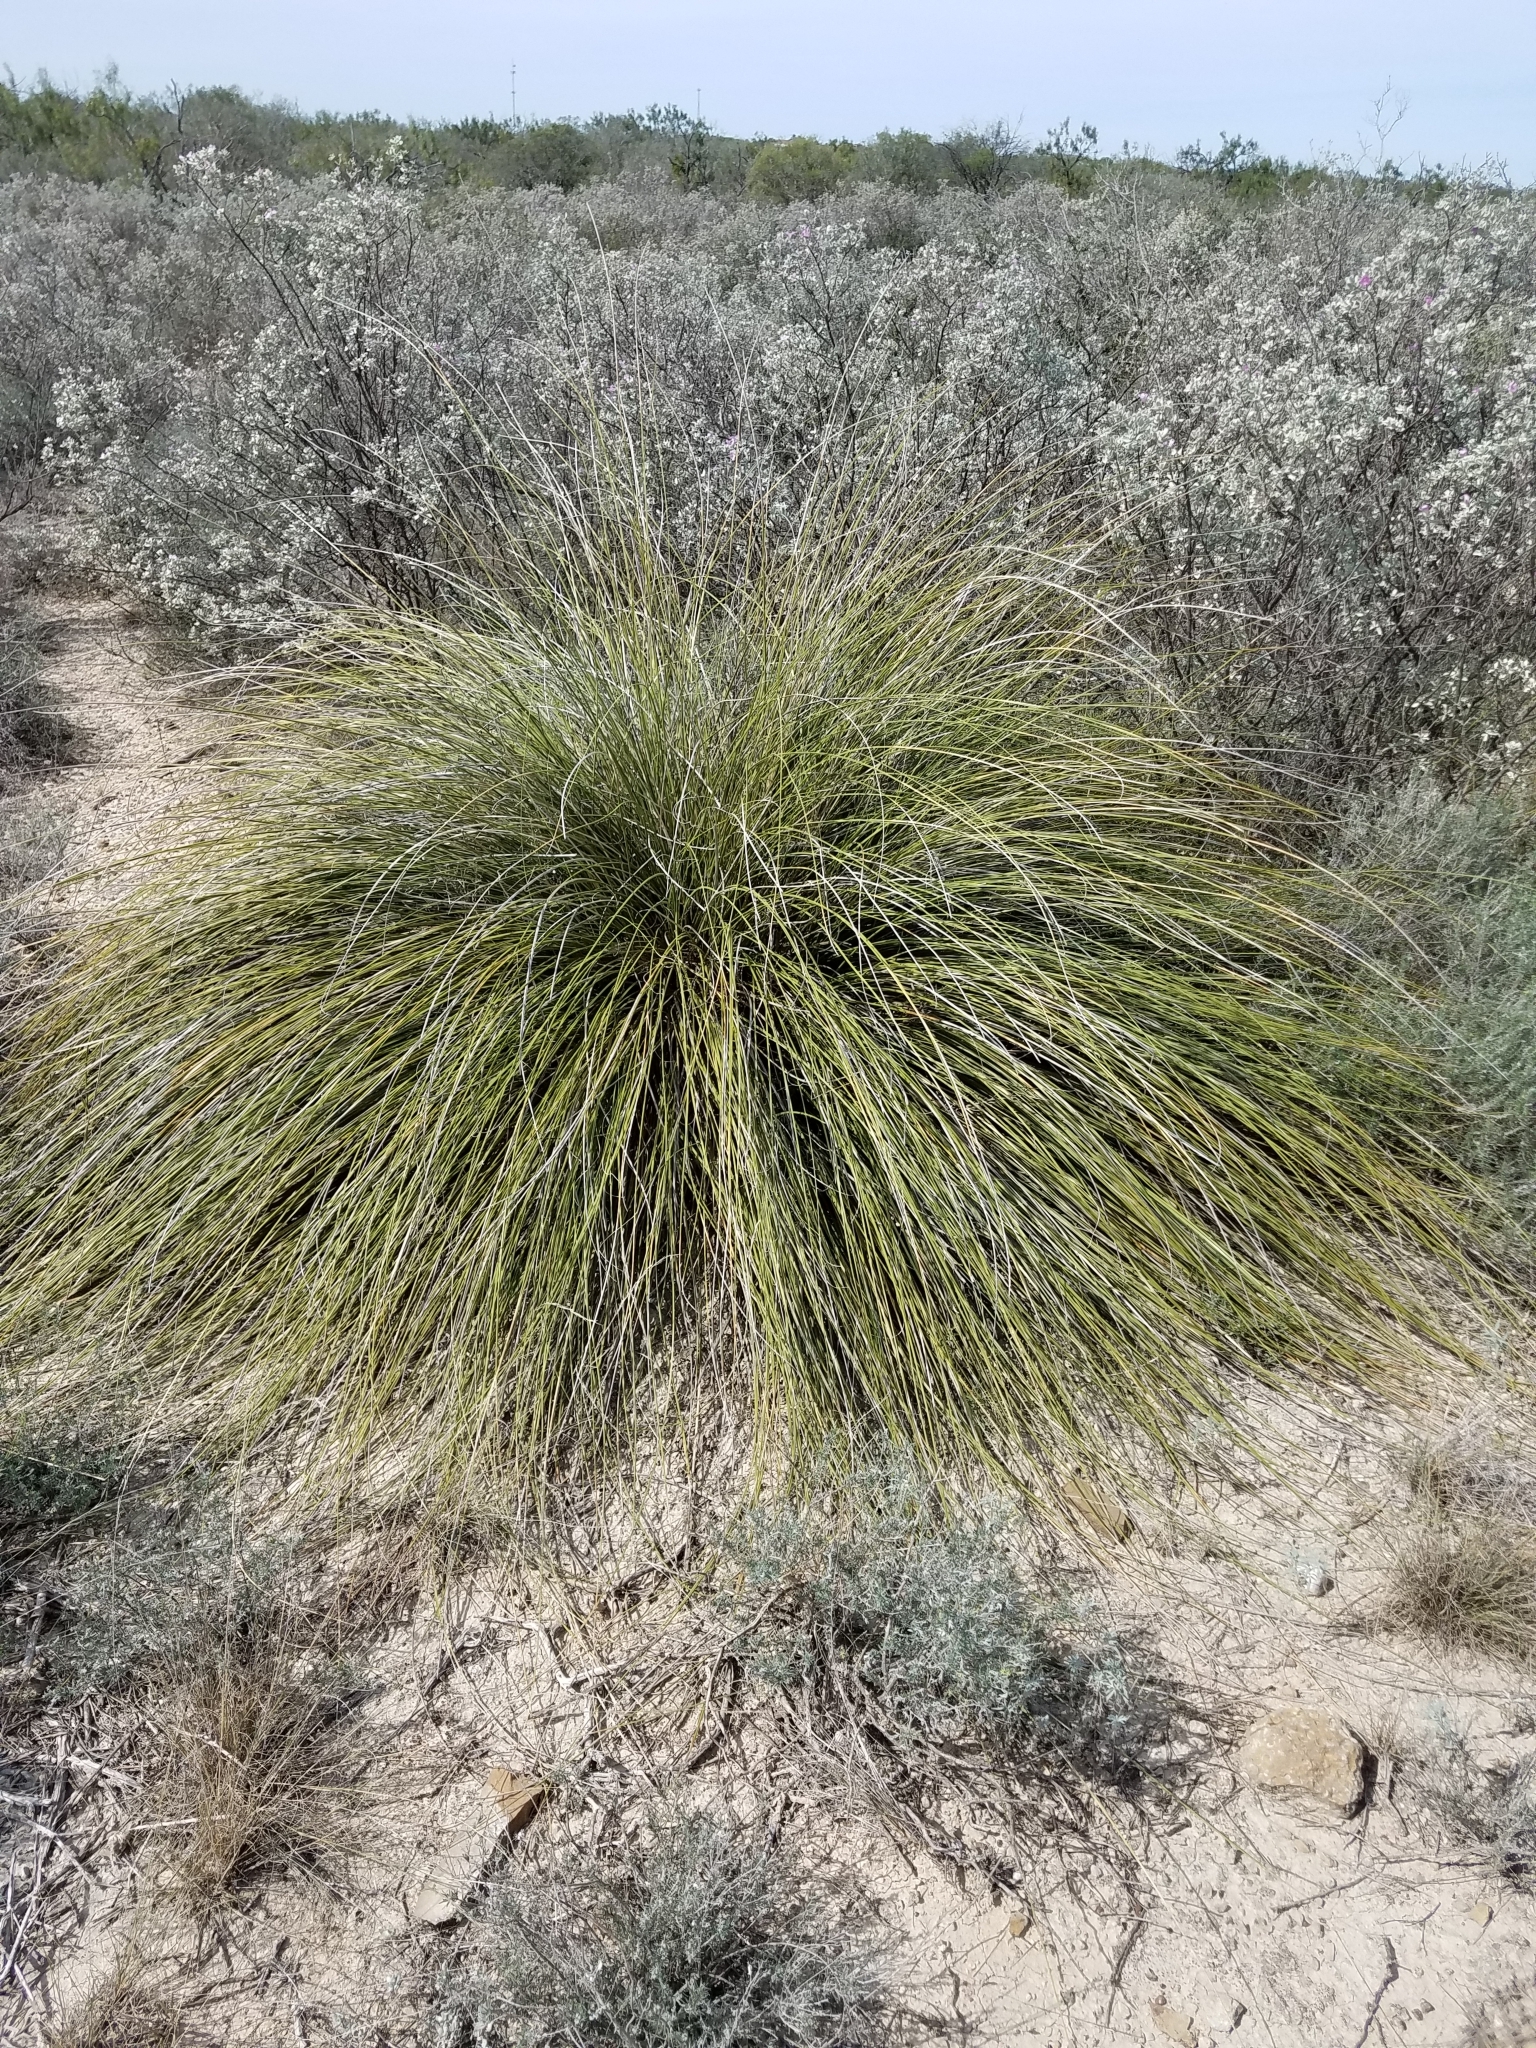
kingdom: Plantae
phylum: Tracheophyta
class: Liliopsida
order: Asparagales
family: Asparagaceae
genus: Nolina
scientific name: Nolina texana
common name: Texas sacahuiste
